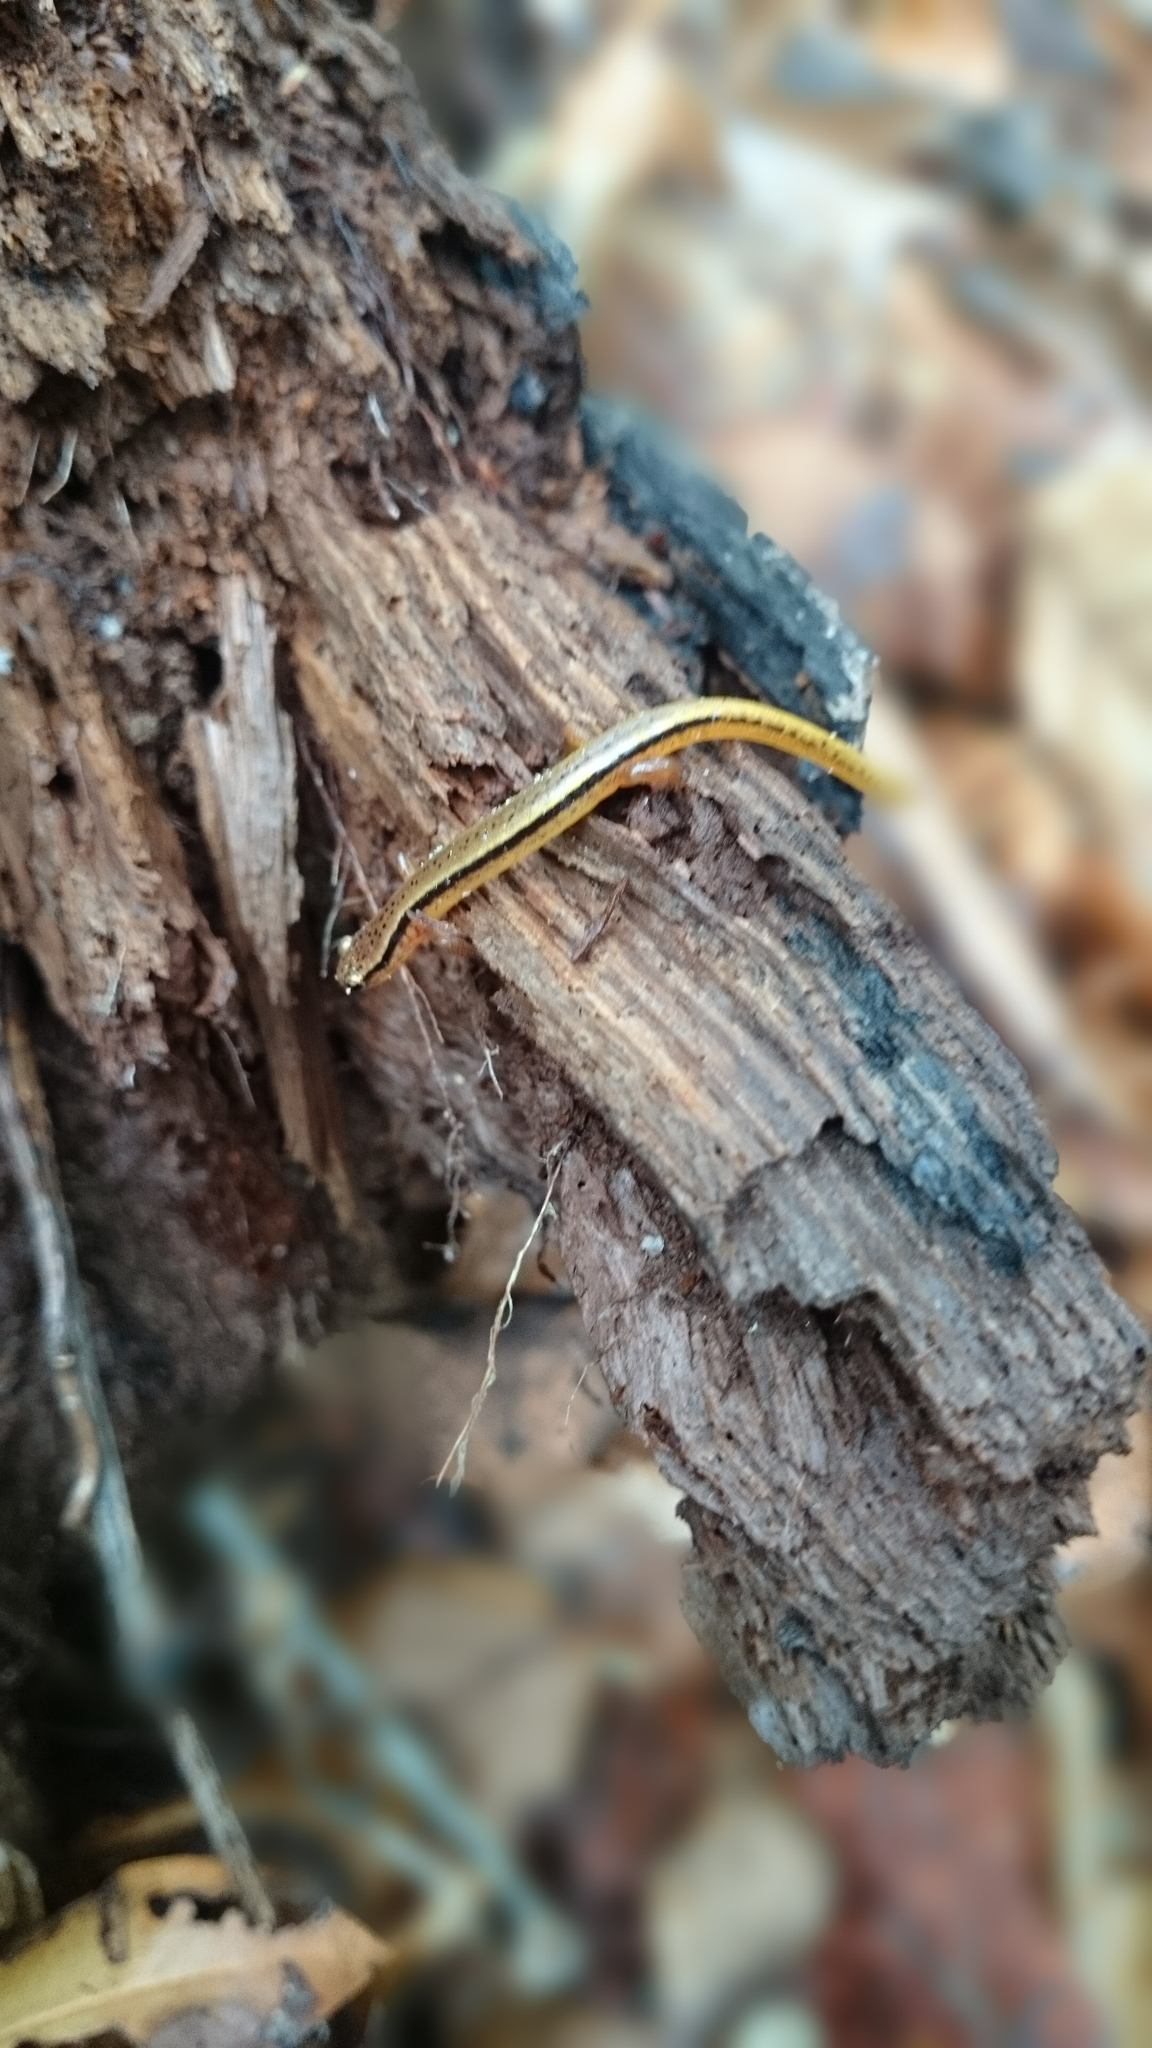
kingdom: Animalia
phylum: Chordata
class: Amphibia
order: Caudata
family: Plethodontidae
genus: Eurycea
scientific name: Eurycea wilderae
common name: Blue ridge two-lined salamander
